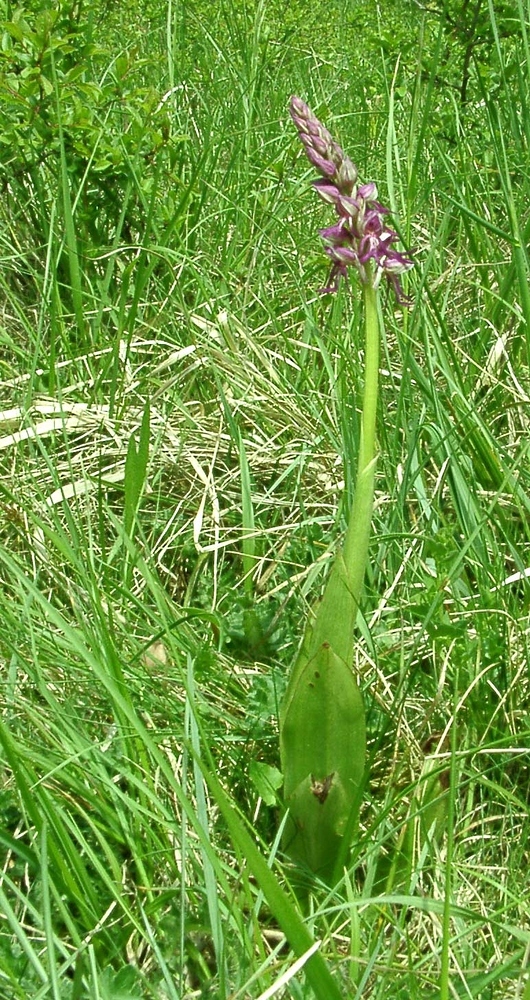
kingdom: Plantae
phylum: Tracheophyta
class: Liliopsida
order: Asparagales
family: Orchidaceae
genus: Orchis
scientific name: Orchis spuria
